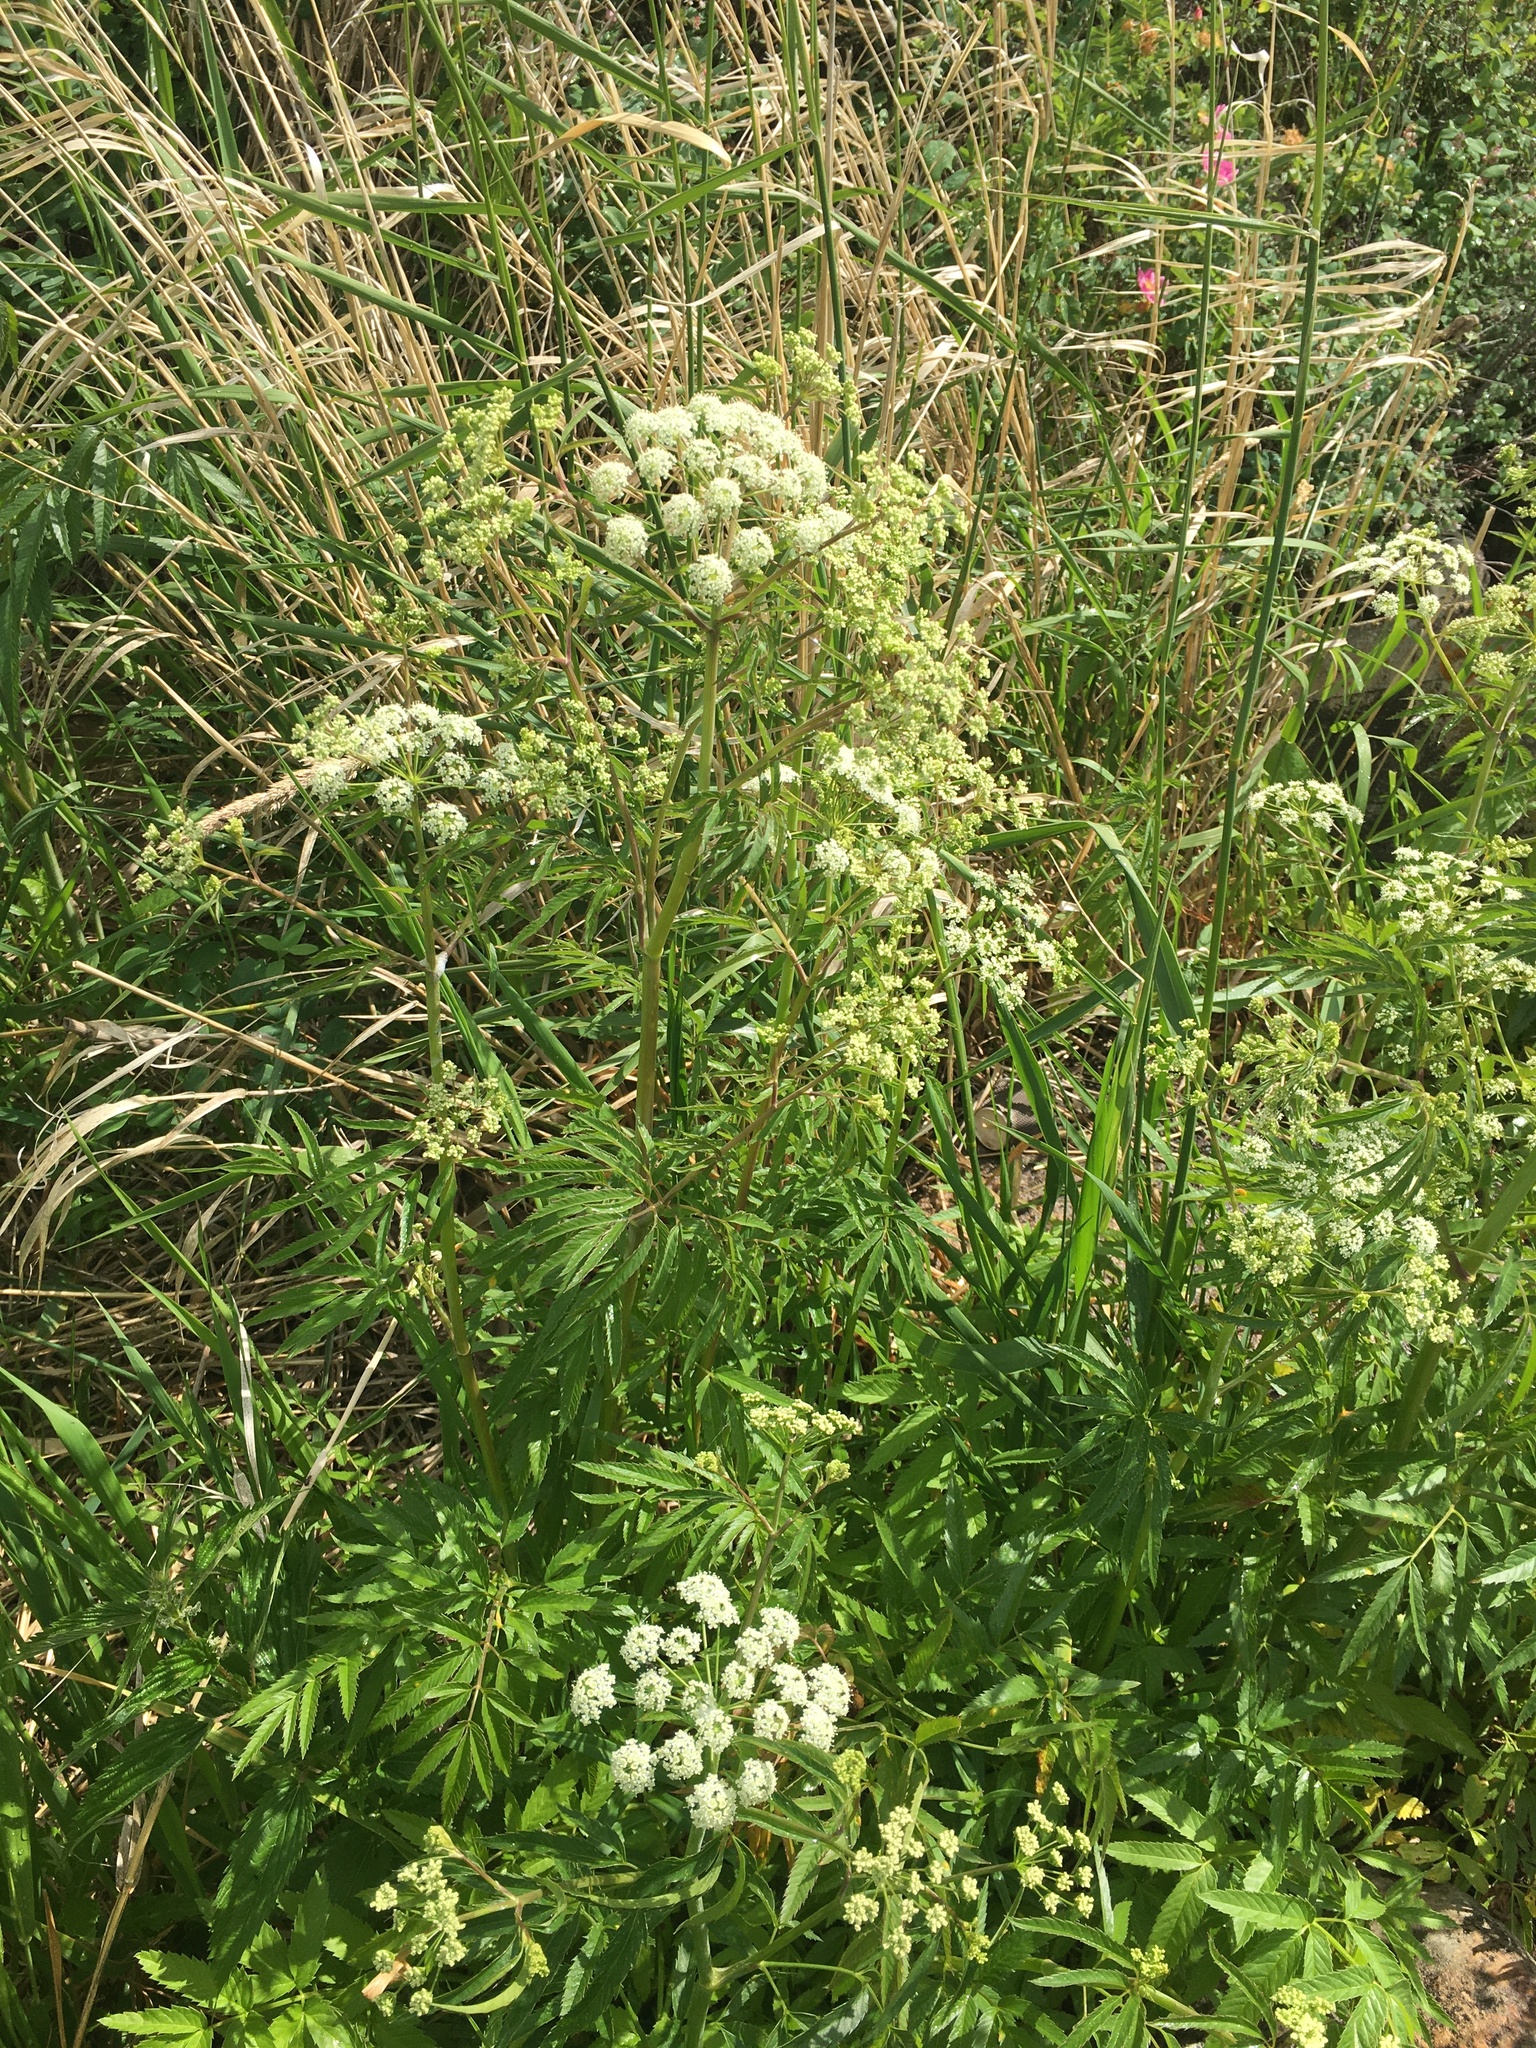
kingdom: Plantae
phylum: Tracheophyta
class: Magnoliopsida
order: Apiales
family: Apiaceae
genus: Cicuta
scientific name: Cicuta maculata
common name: Spotted cowbane
